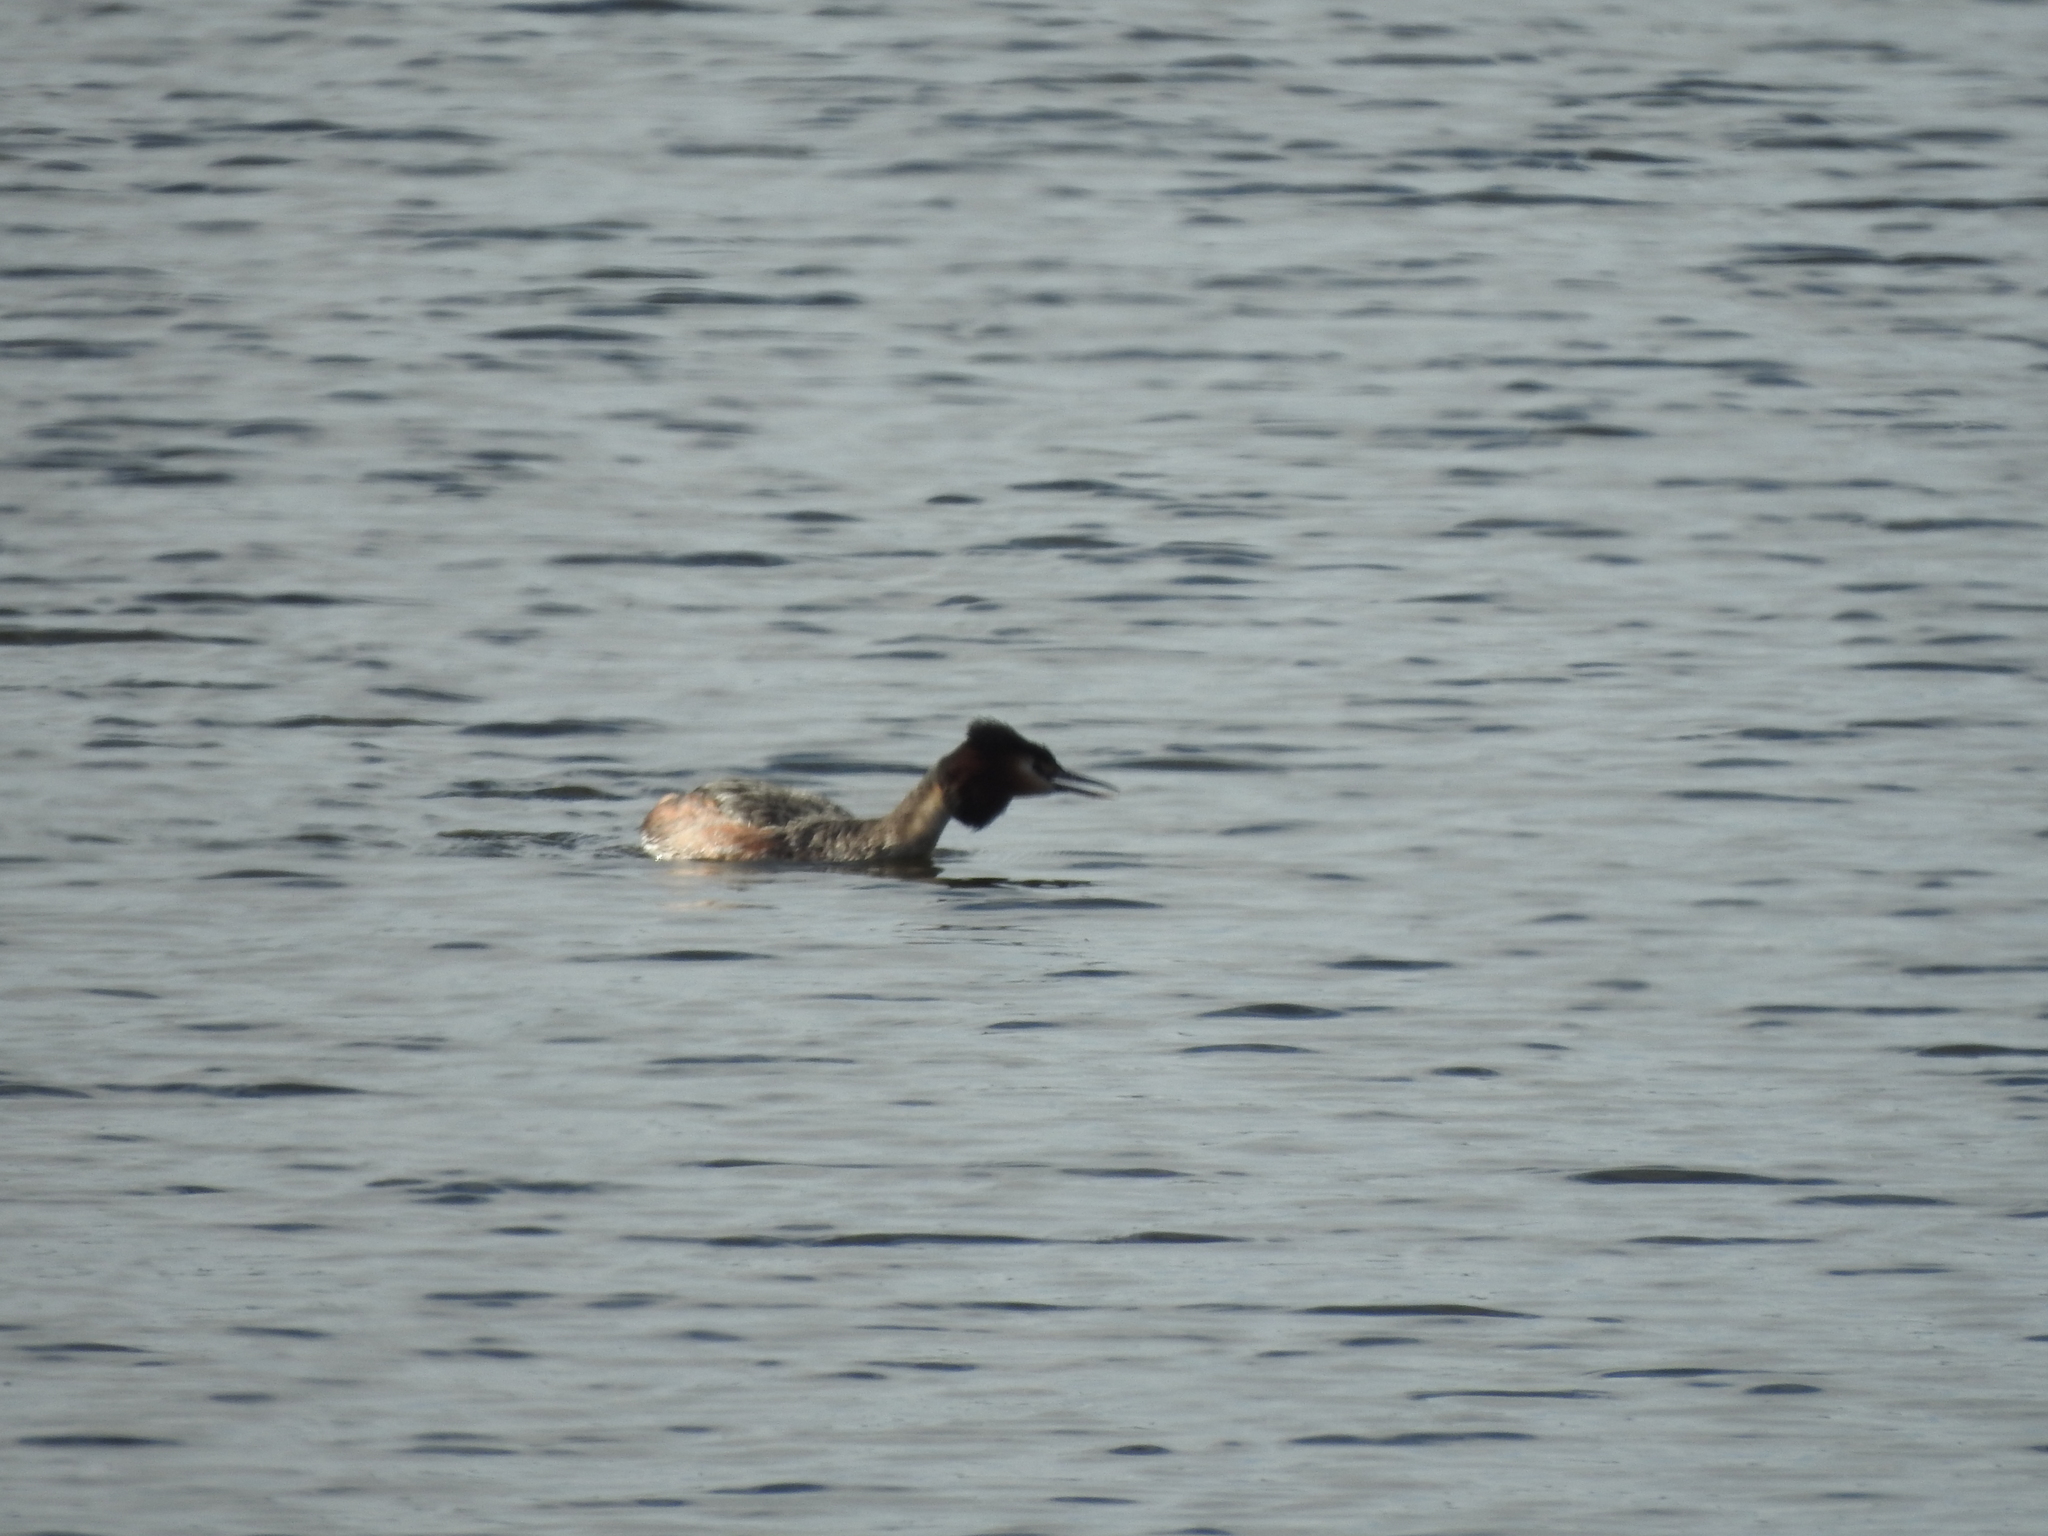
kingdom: Animalia
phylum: Chordata
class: Aves
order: Podicipediformes
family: Podicipedidae
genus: Podiceps
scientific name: Podiceps cristatus
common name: Great crested grebe
